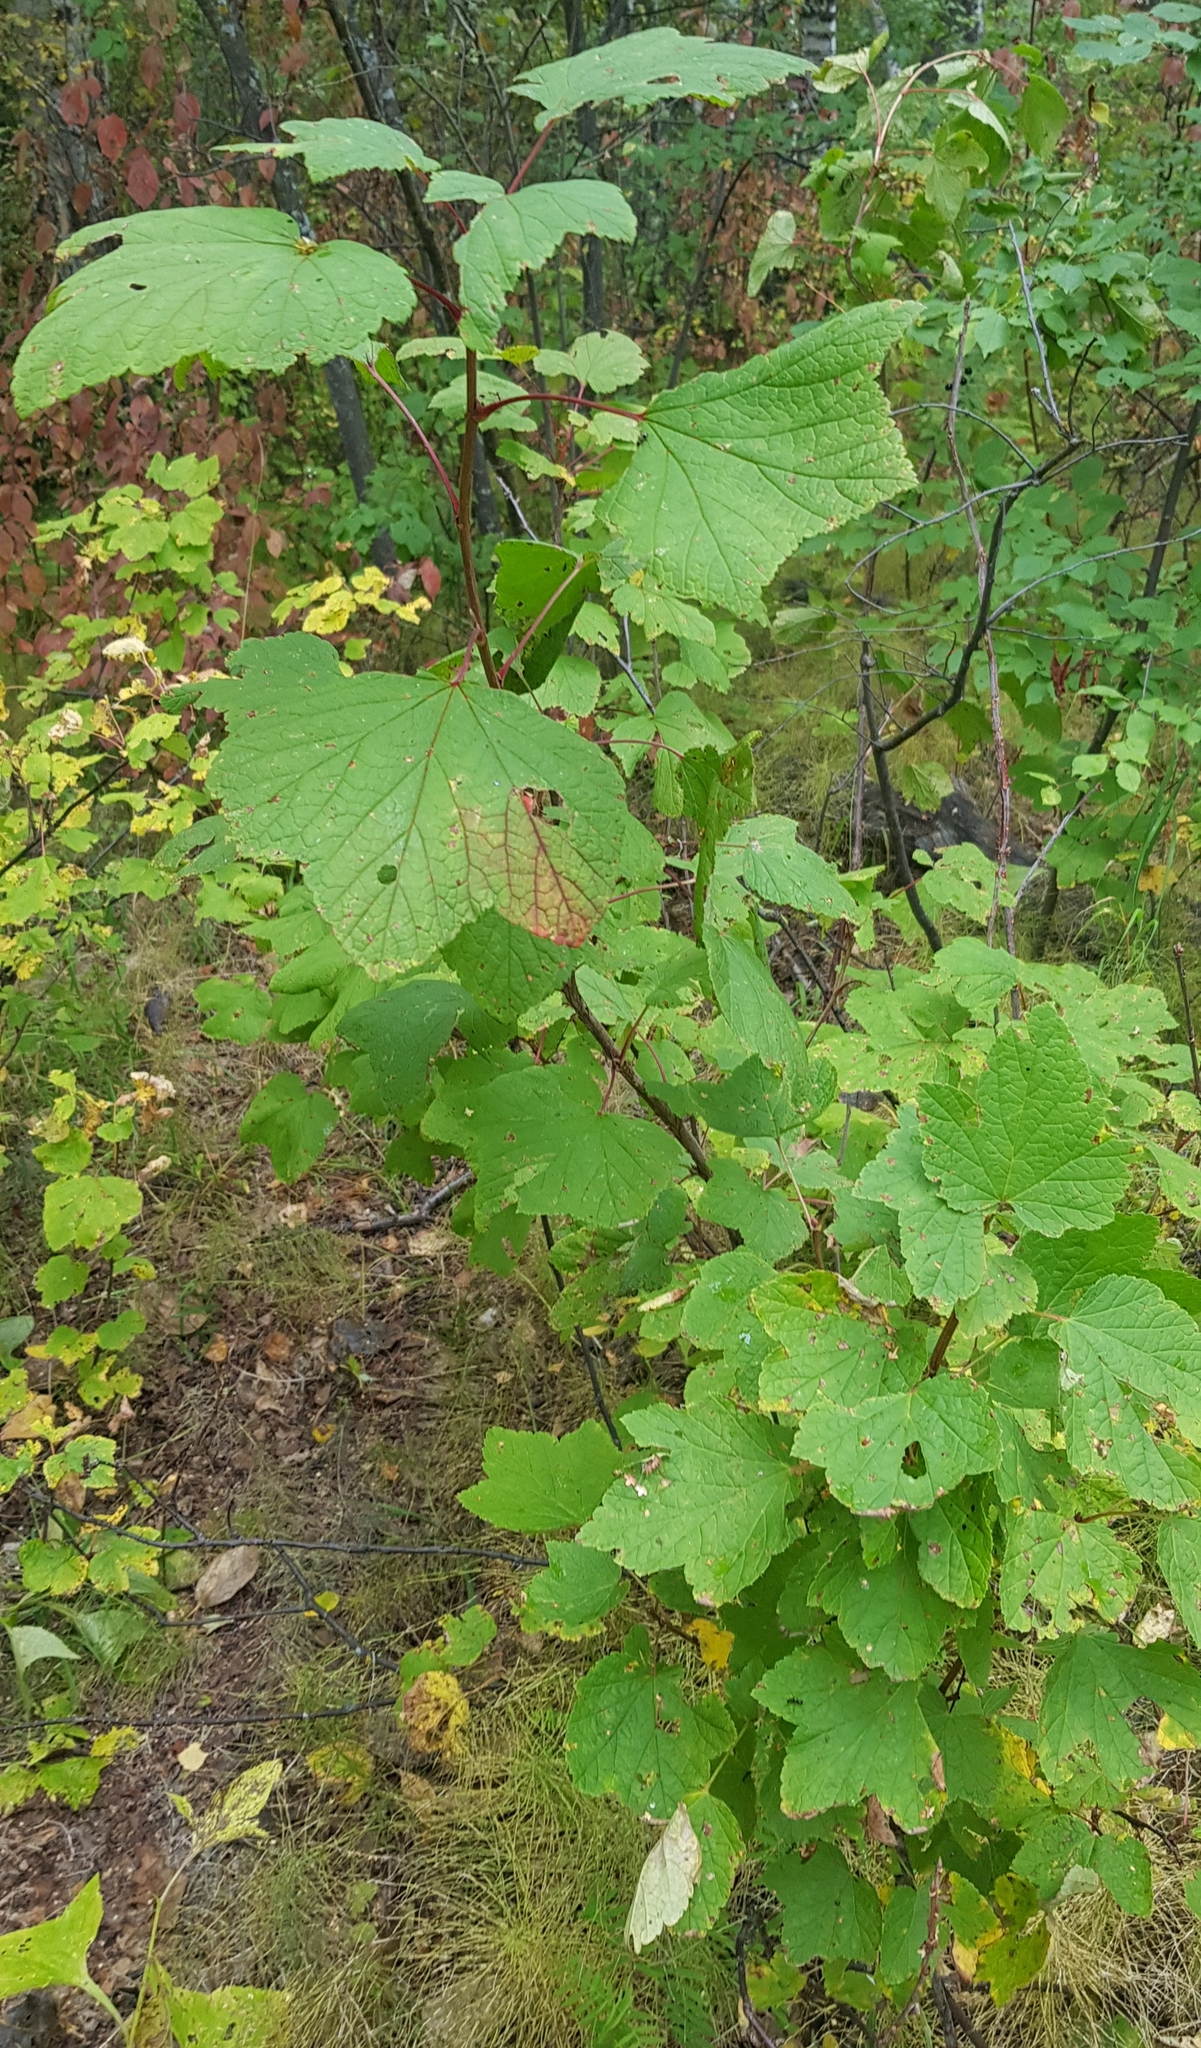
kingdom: Plantae
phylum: Tracheophyta
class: Magnoliopsida
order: Saxifragales
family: Grossulariaceae
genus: Ribes
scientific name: Ribes spicatum
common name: Downy currant
